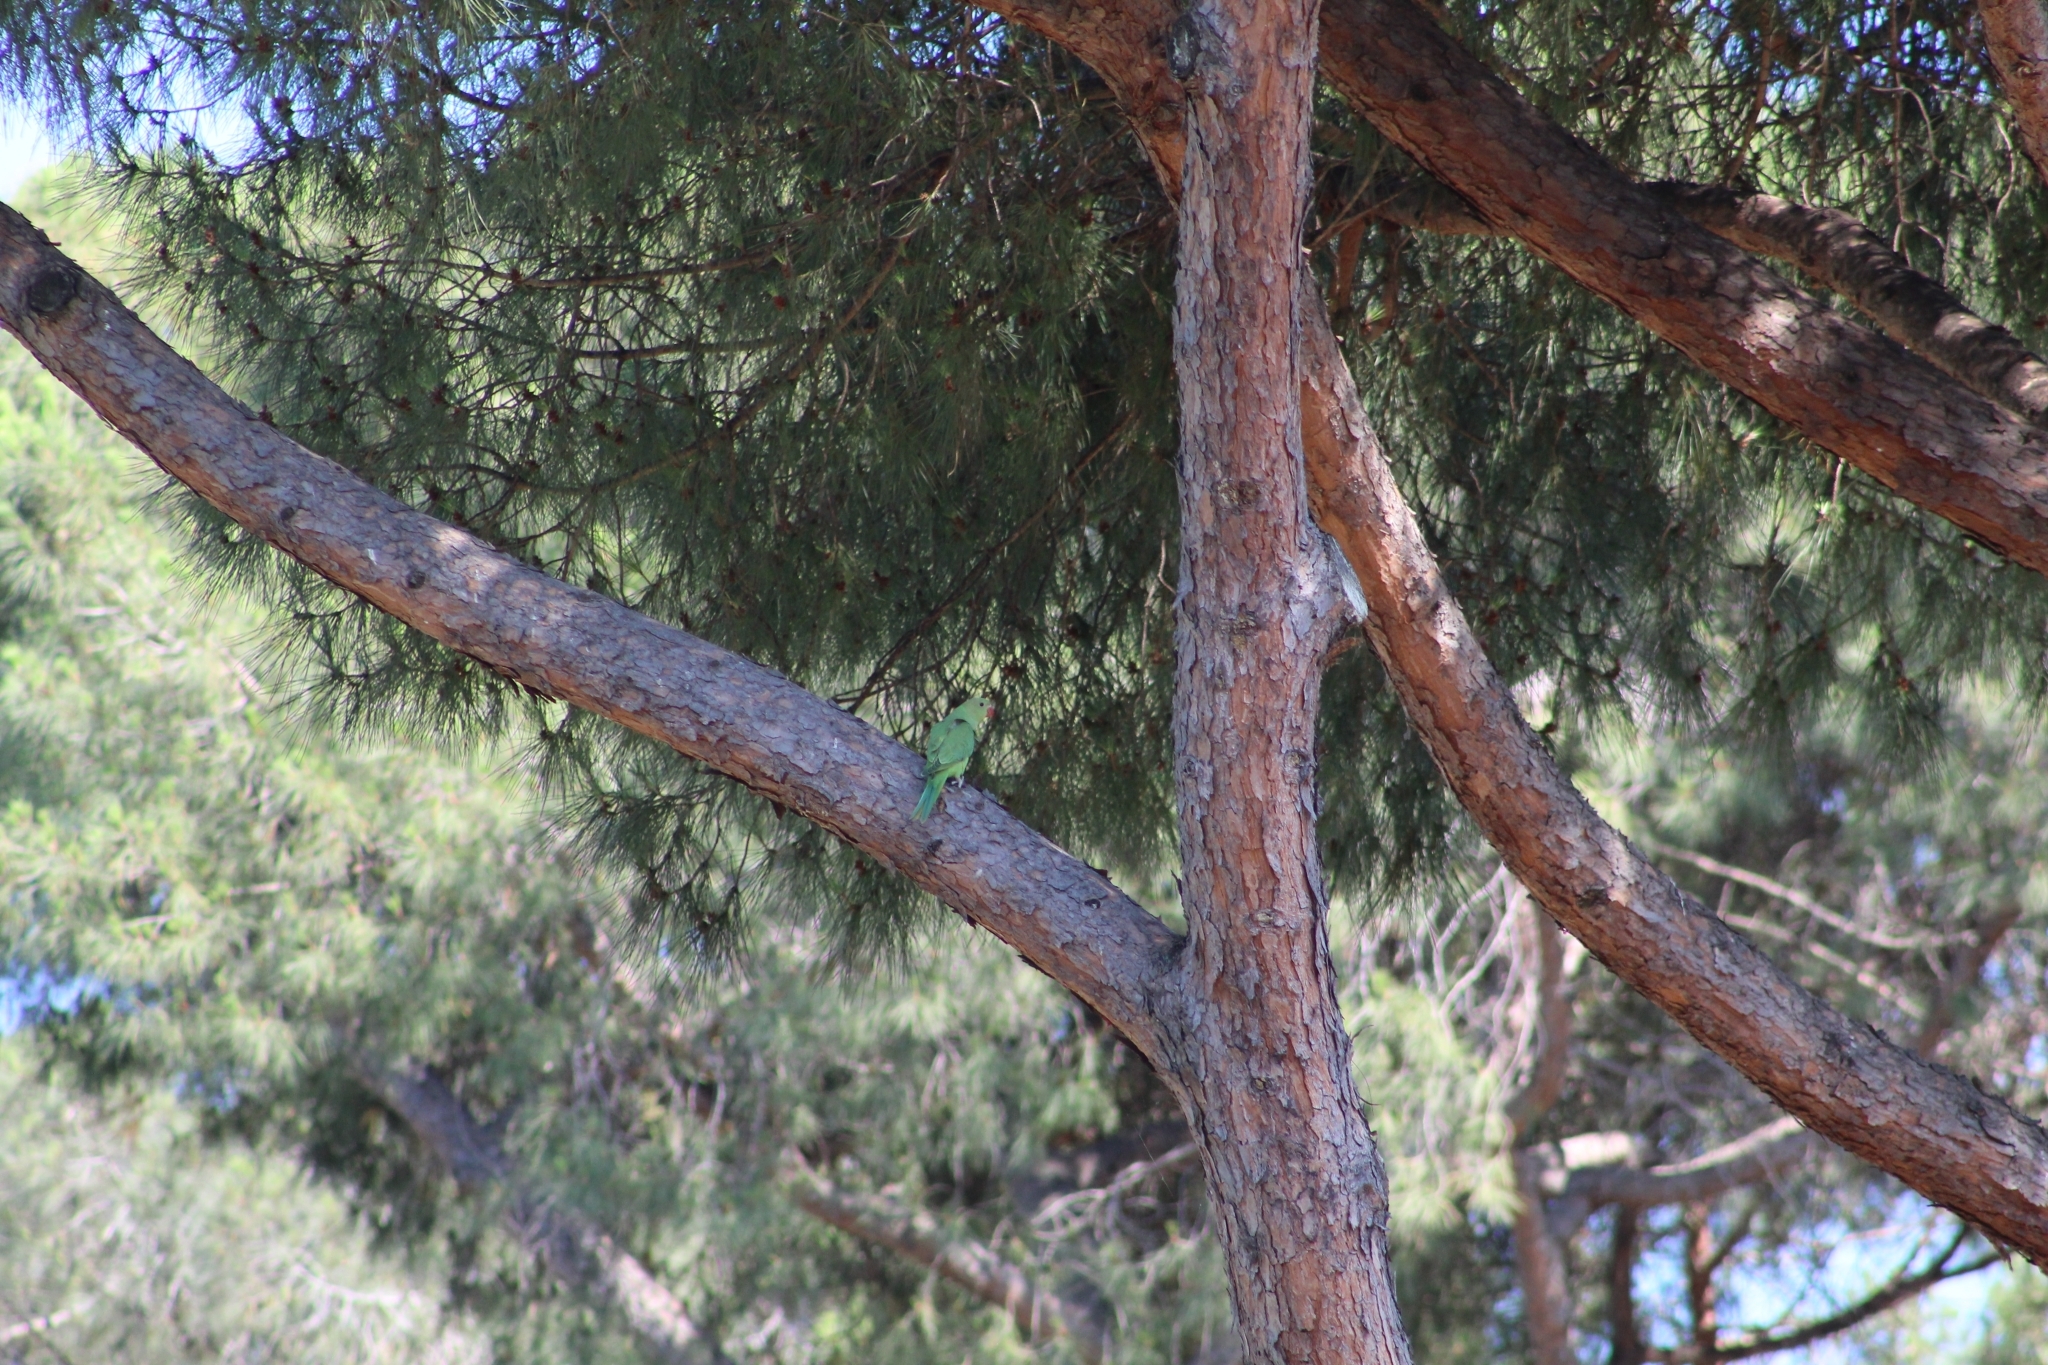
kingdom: Animalia
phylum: Chordata
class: Aves
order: Psittaciformes
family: Psittacidae
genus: Psittacula
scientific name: Psittacula
